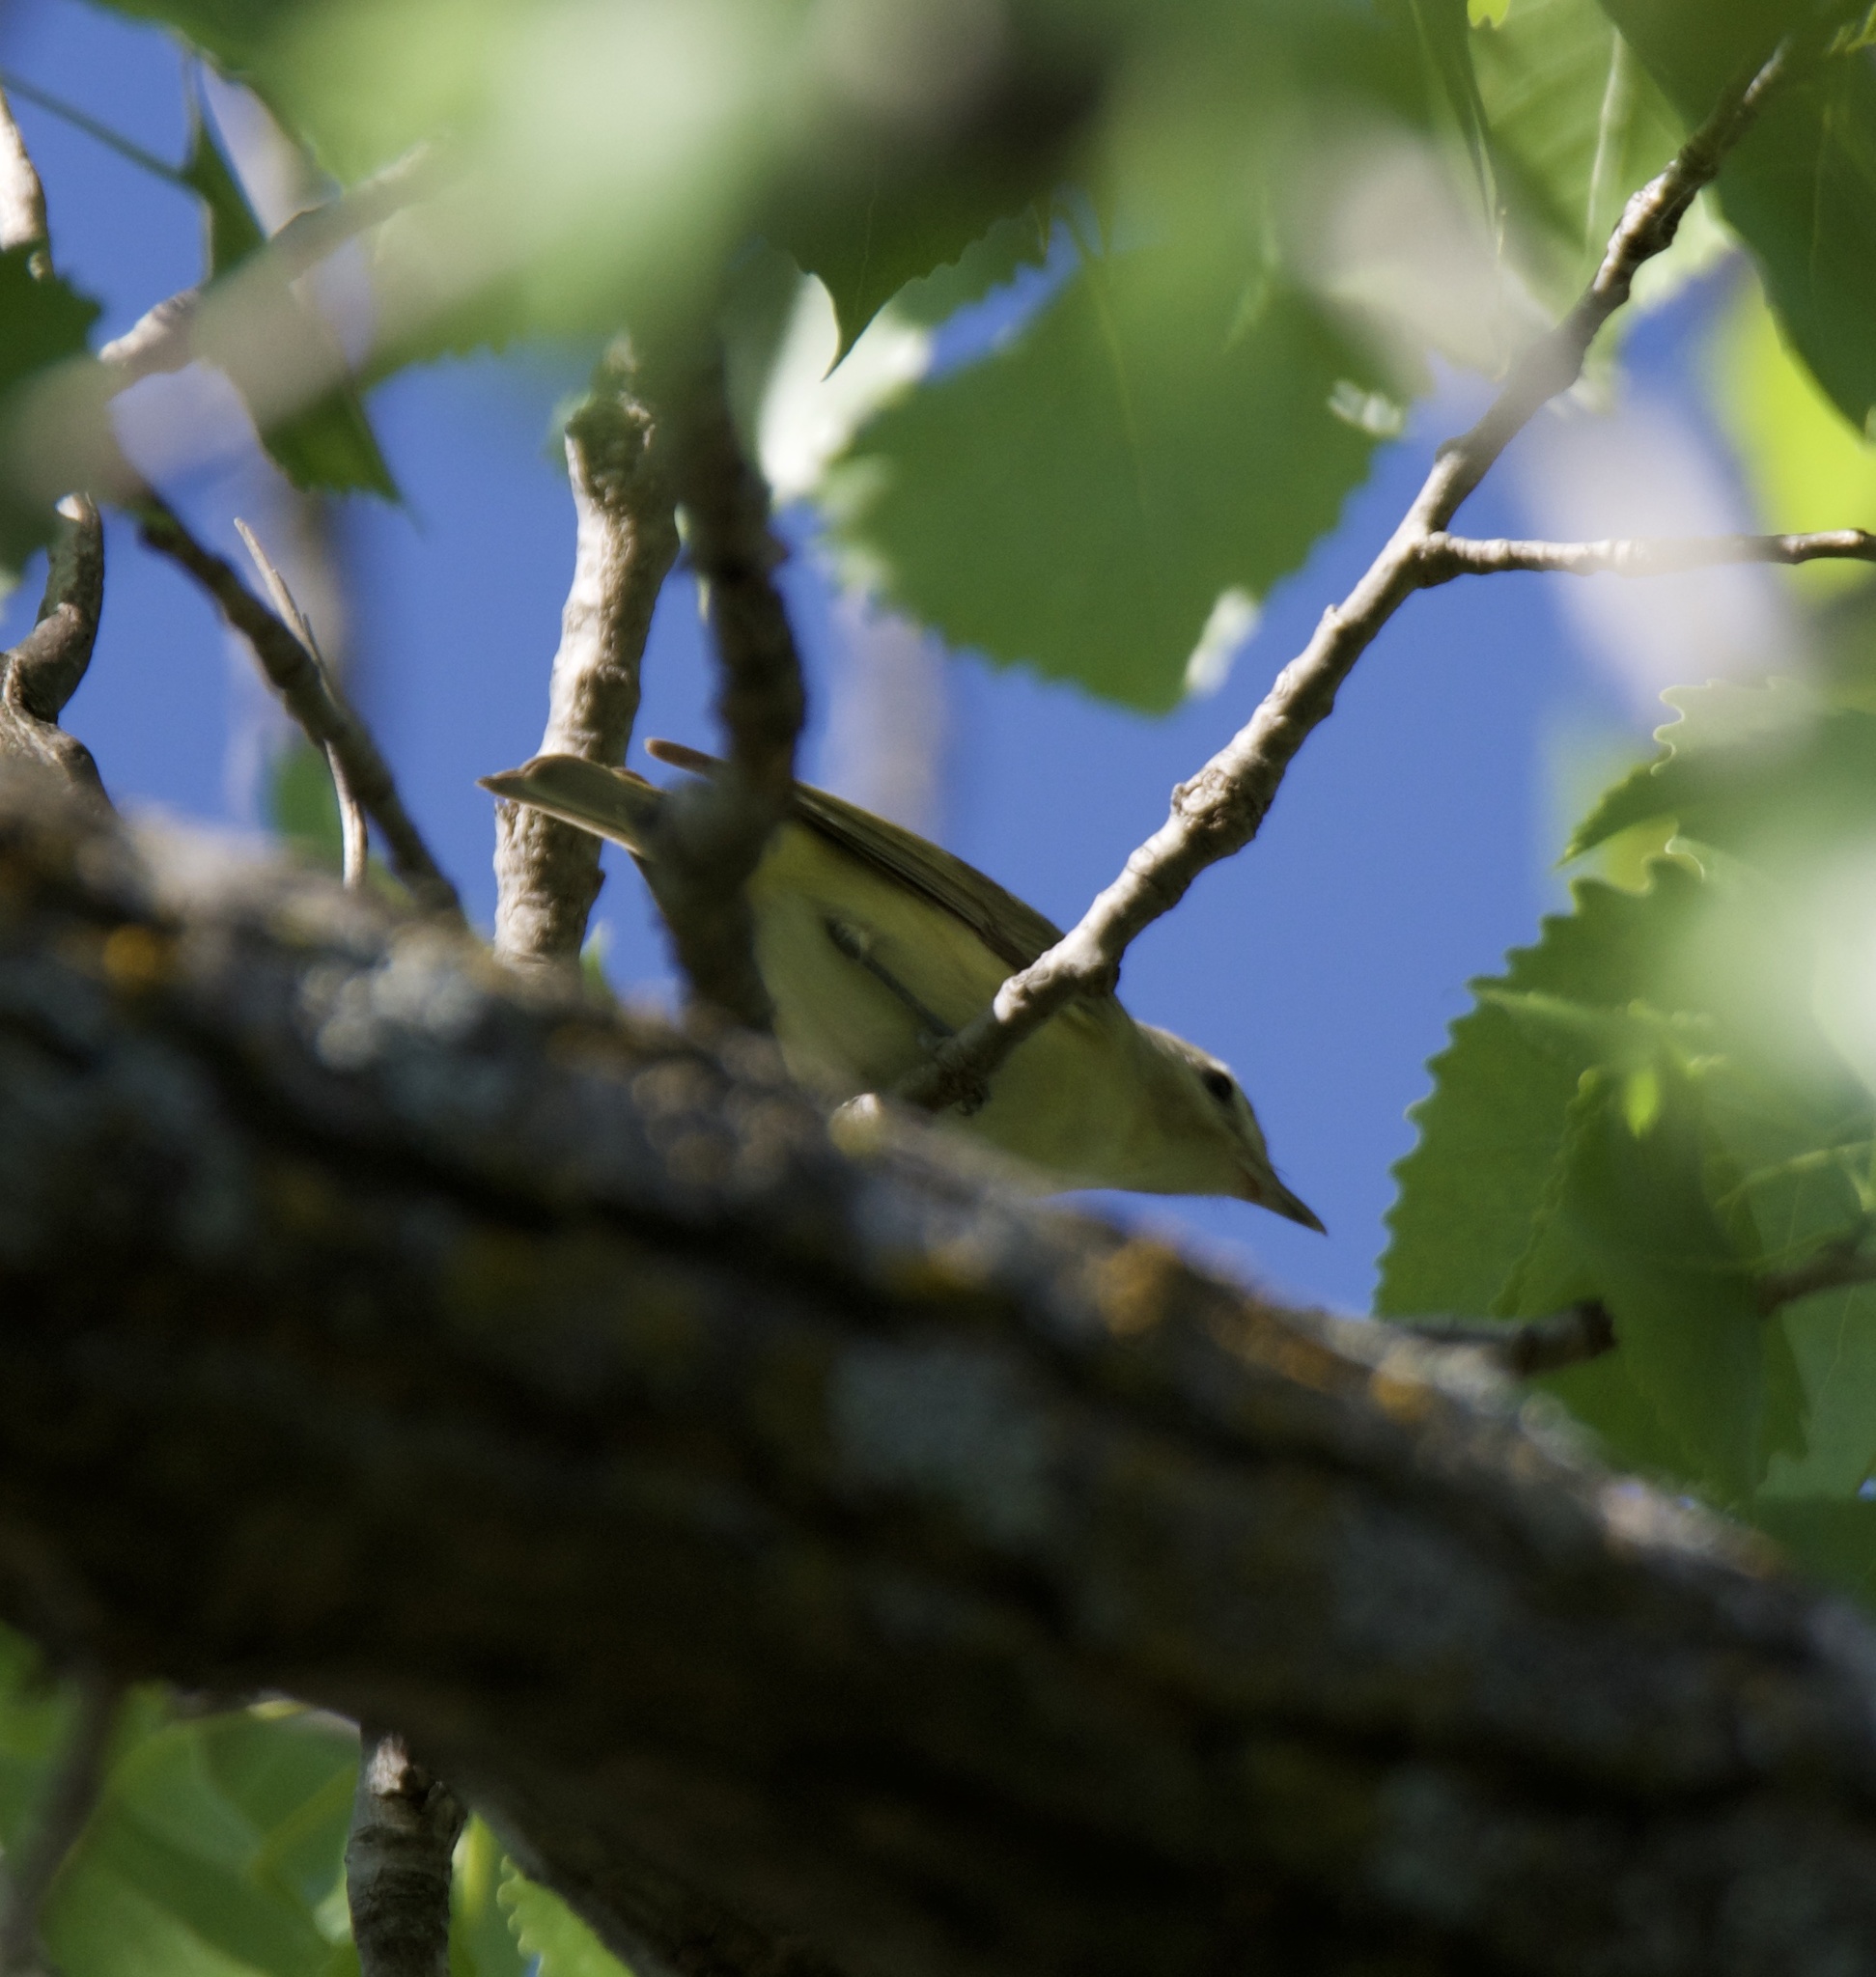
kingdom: Animalia
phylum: Chordata
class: Aves
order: Passeriformes
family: Vireonidae
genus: Vireo
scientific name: Vireo gilvus
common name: Warbling vireo
